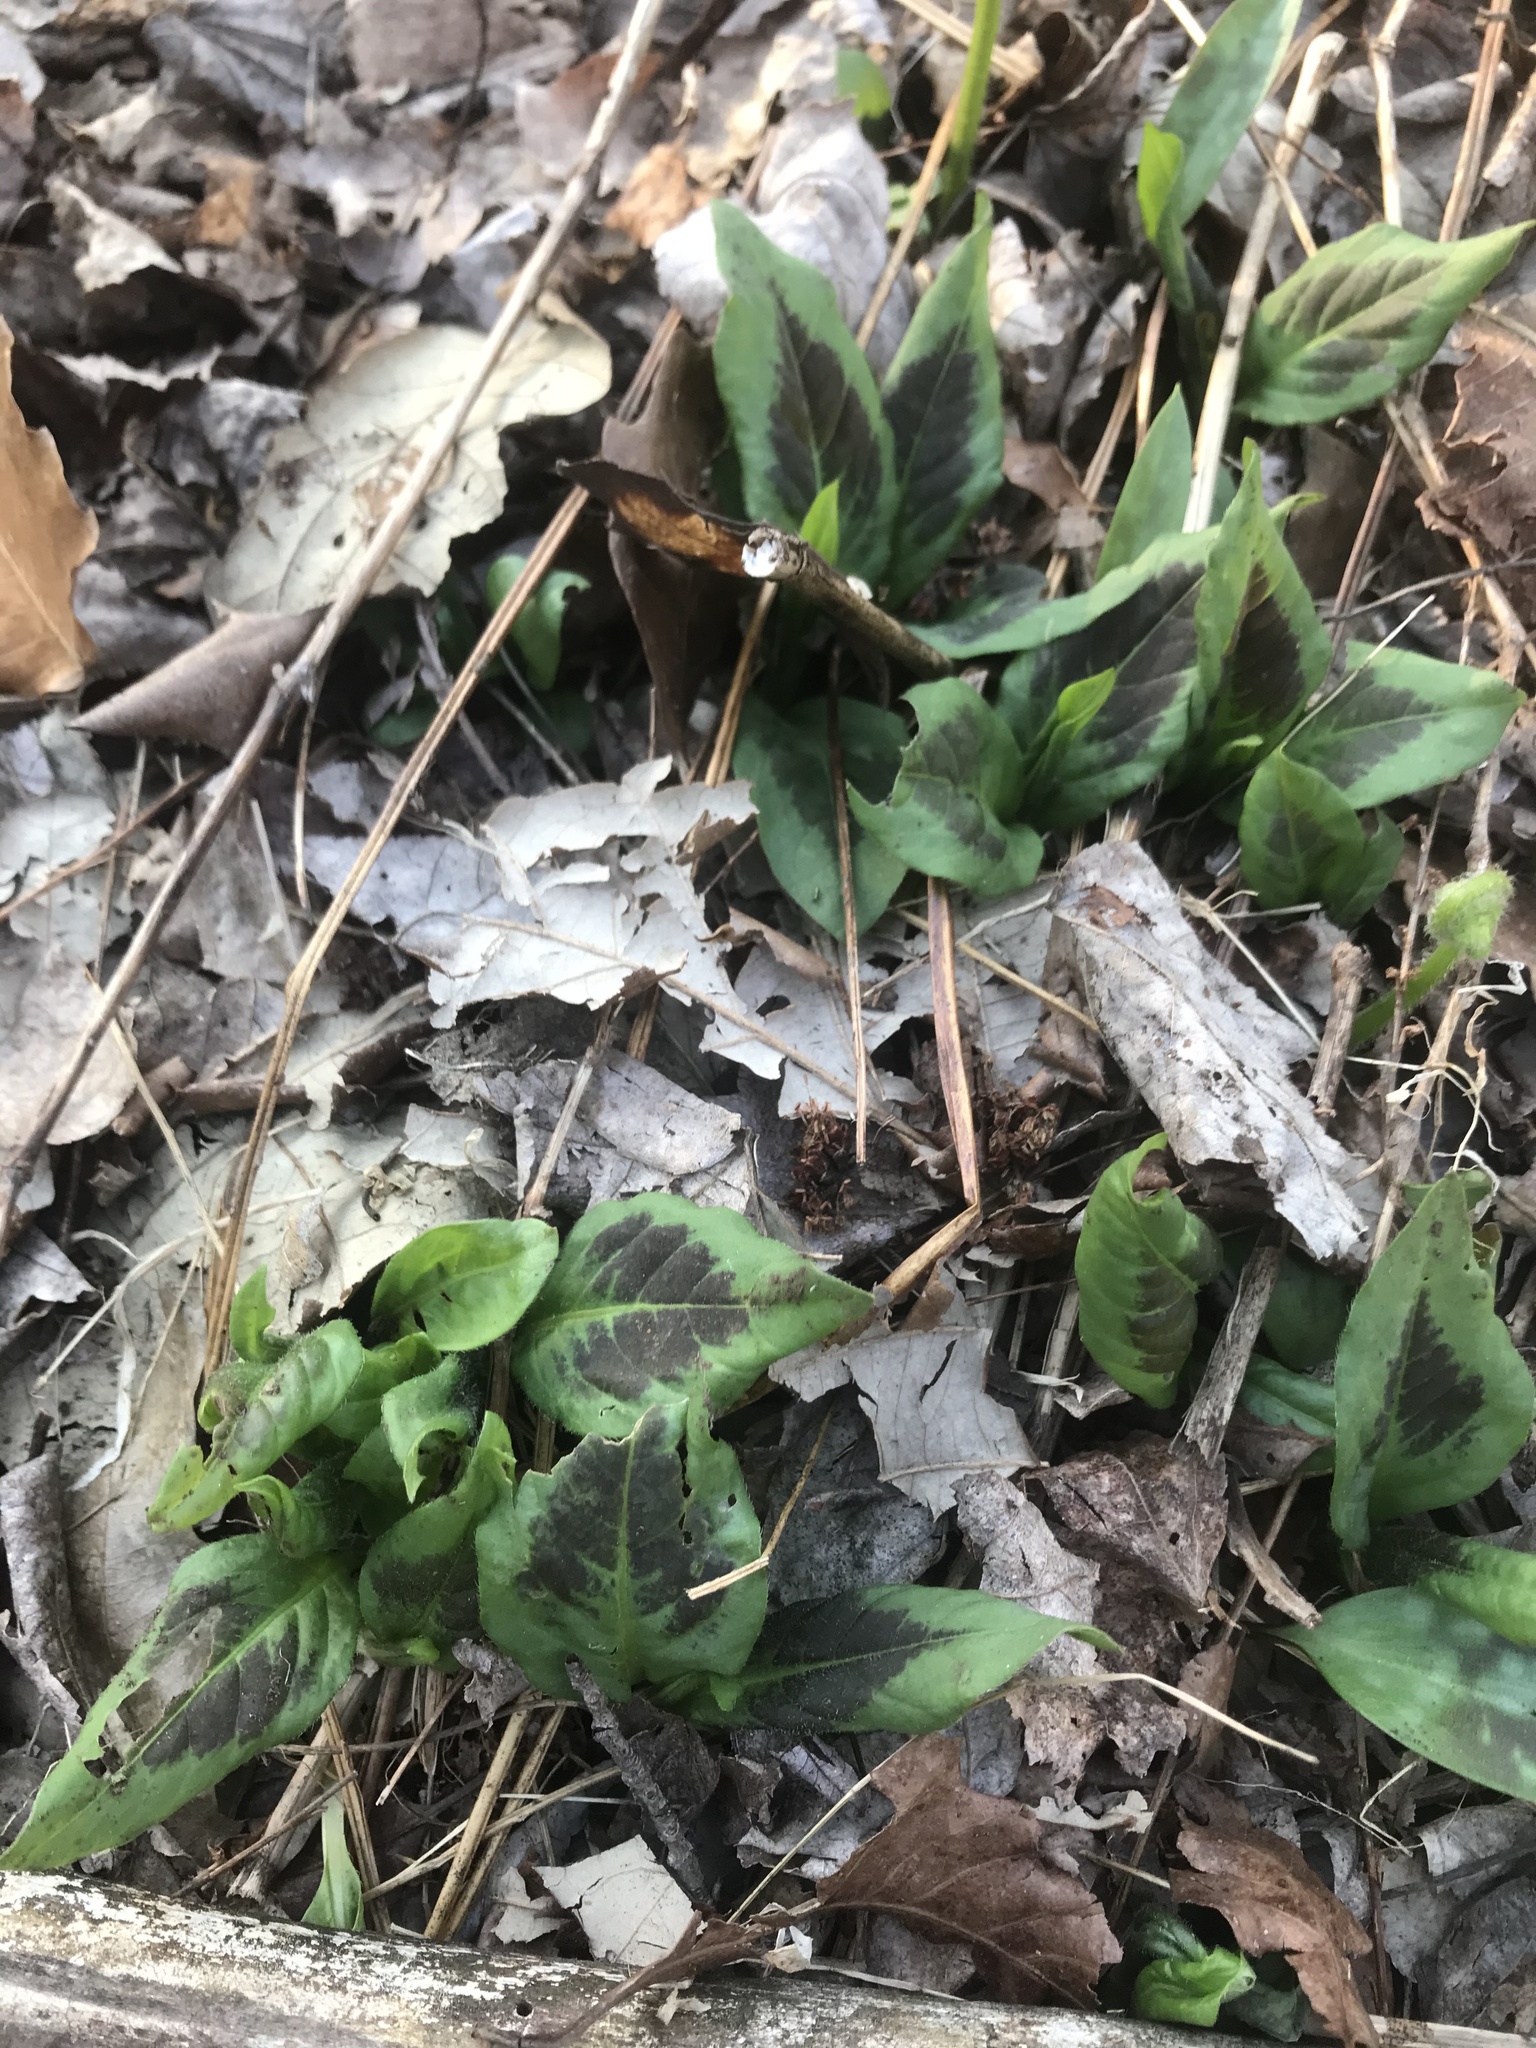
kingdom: Plantae
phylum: Tracheophyta
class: Magnoliopsida
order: Caryophyllales
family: Polygonaceae
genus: Persicaria
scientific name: Persicaria virginiana
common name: Jumpseed
